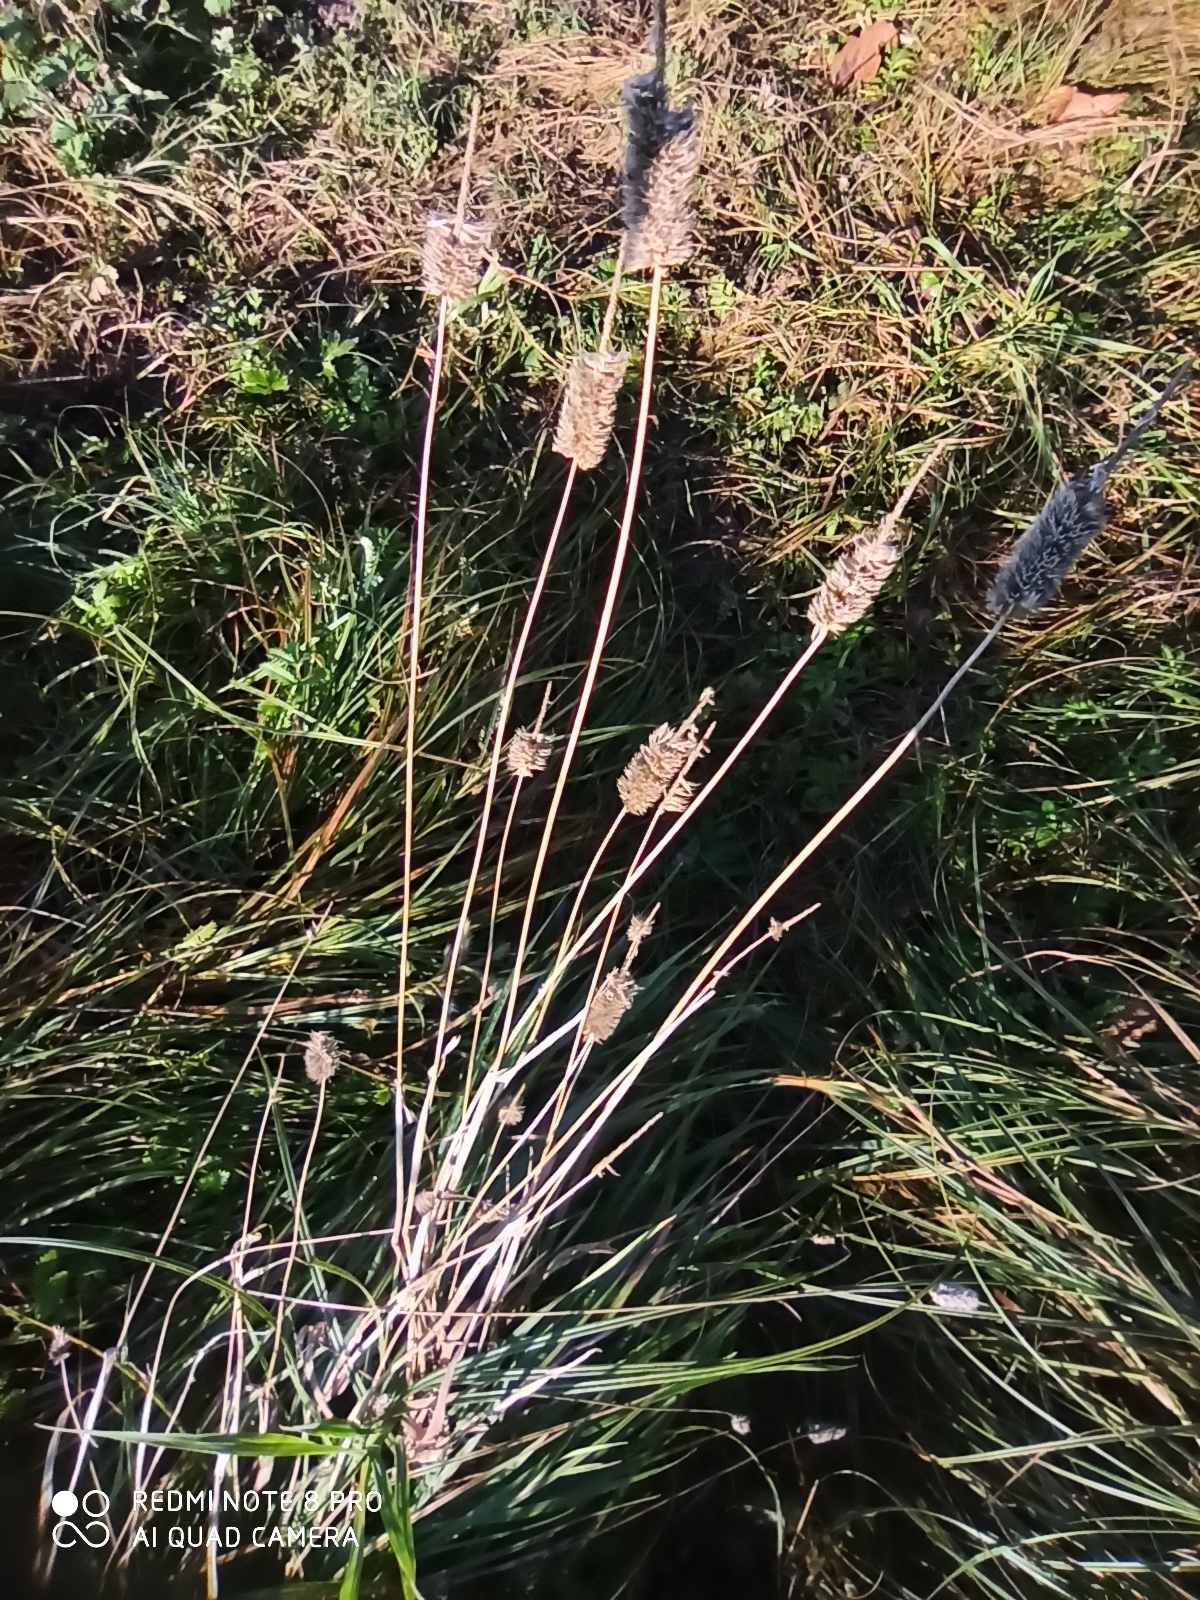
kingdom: Plantae
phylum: Tracheophyta
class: Liliopsida
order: Poales
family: Poaceae
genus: Phleum
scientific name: Phleum pratense
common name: Timothy grass
